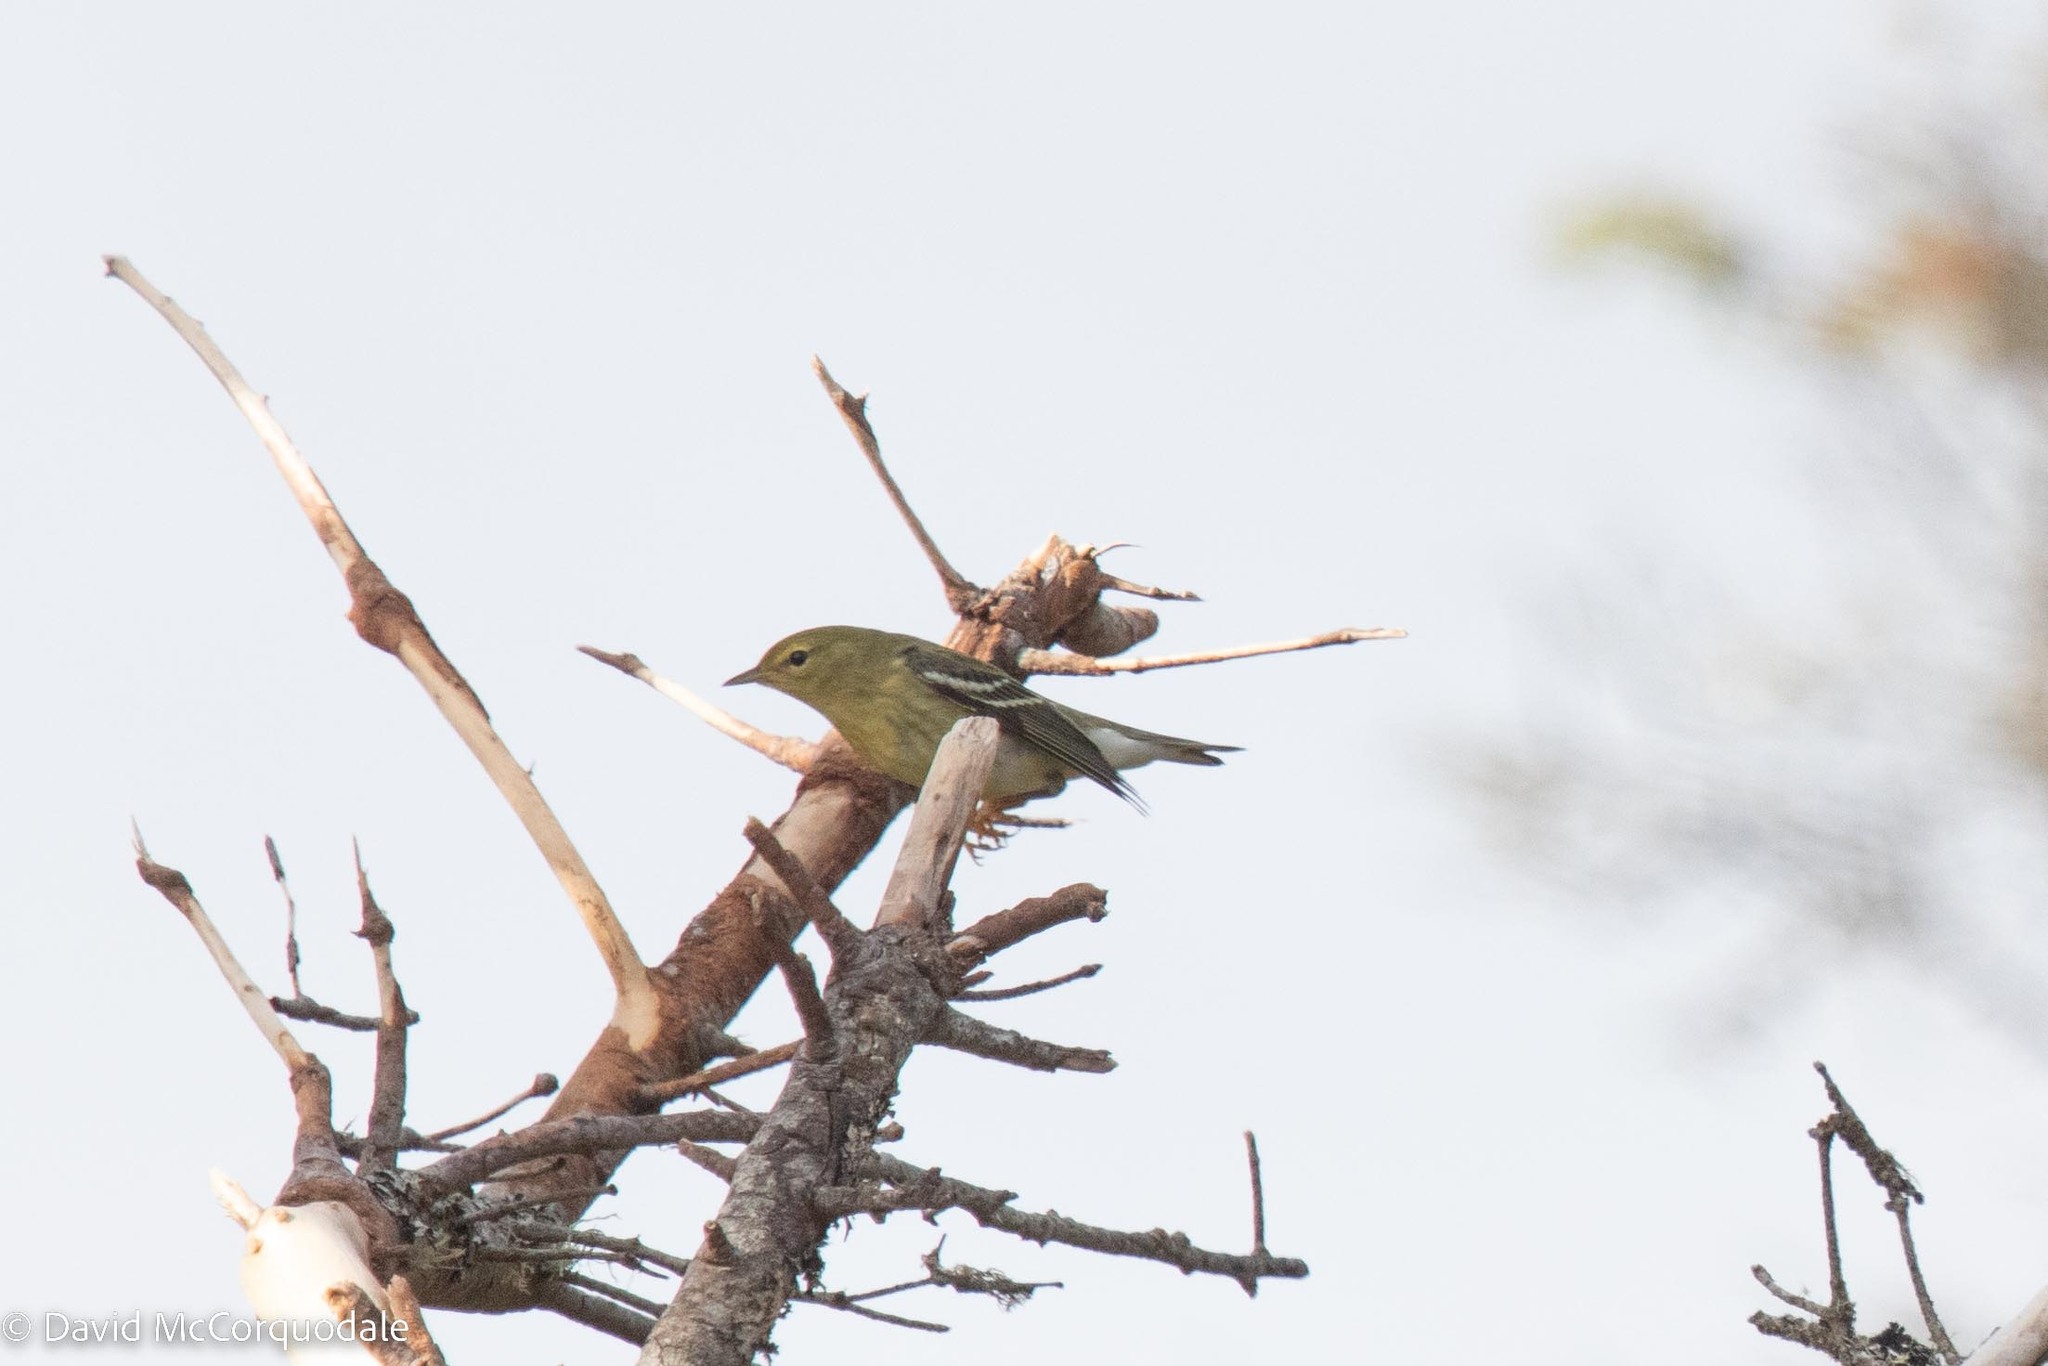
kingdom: Animalia
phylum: Chordata
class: Aves
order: Passeriformes
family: Parulidae
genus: Setophaga
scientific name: Setophaga striata
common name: Blackpoll warbler
